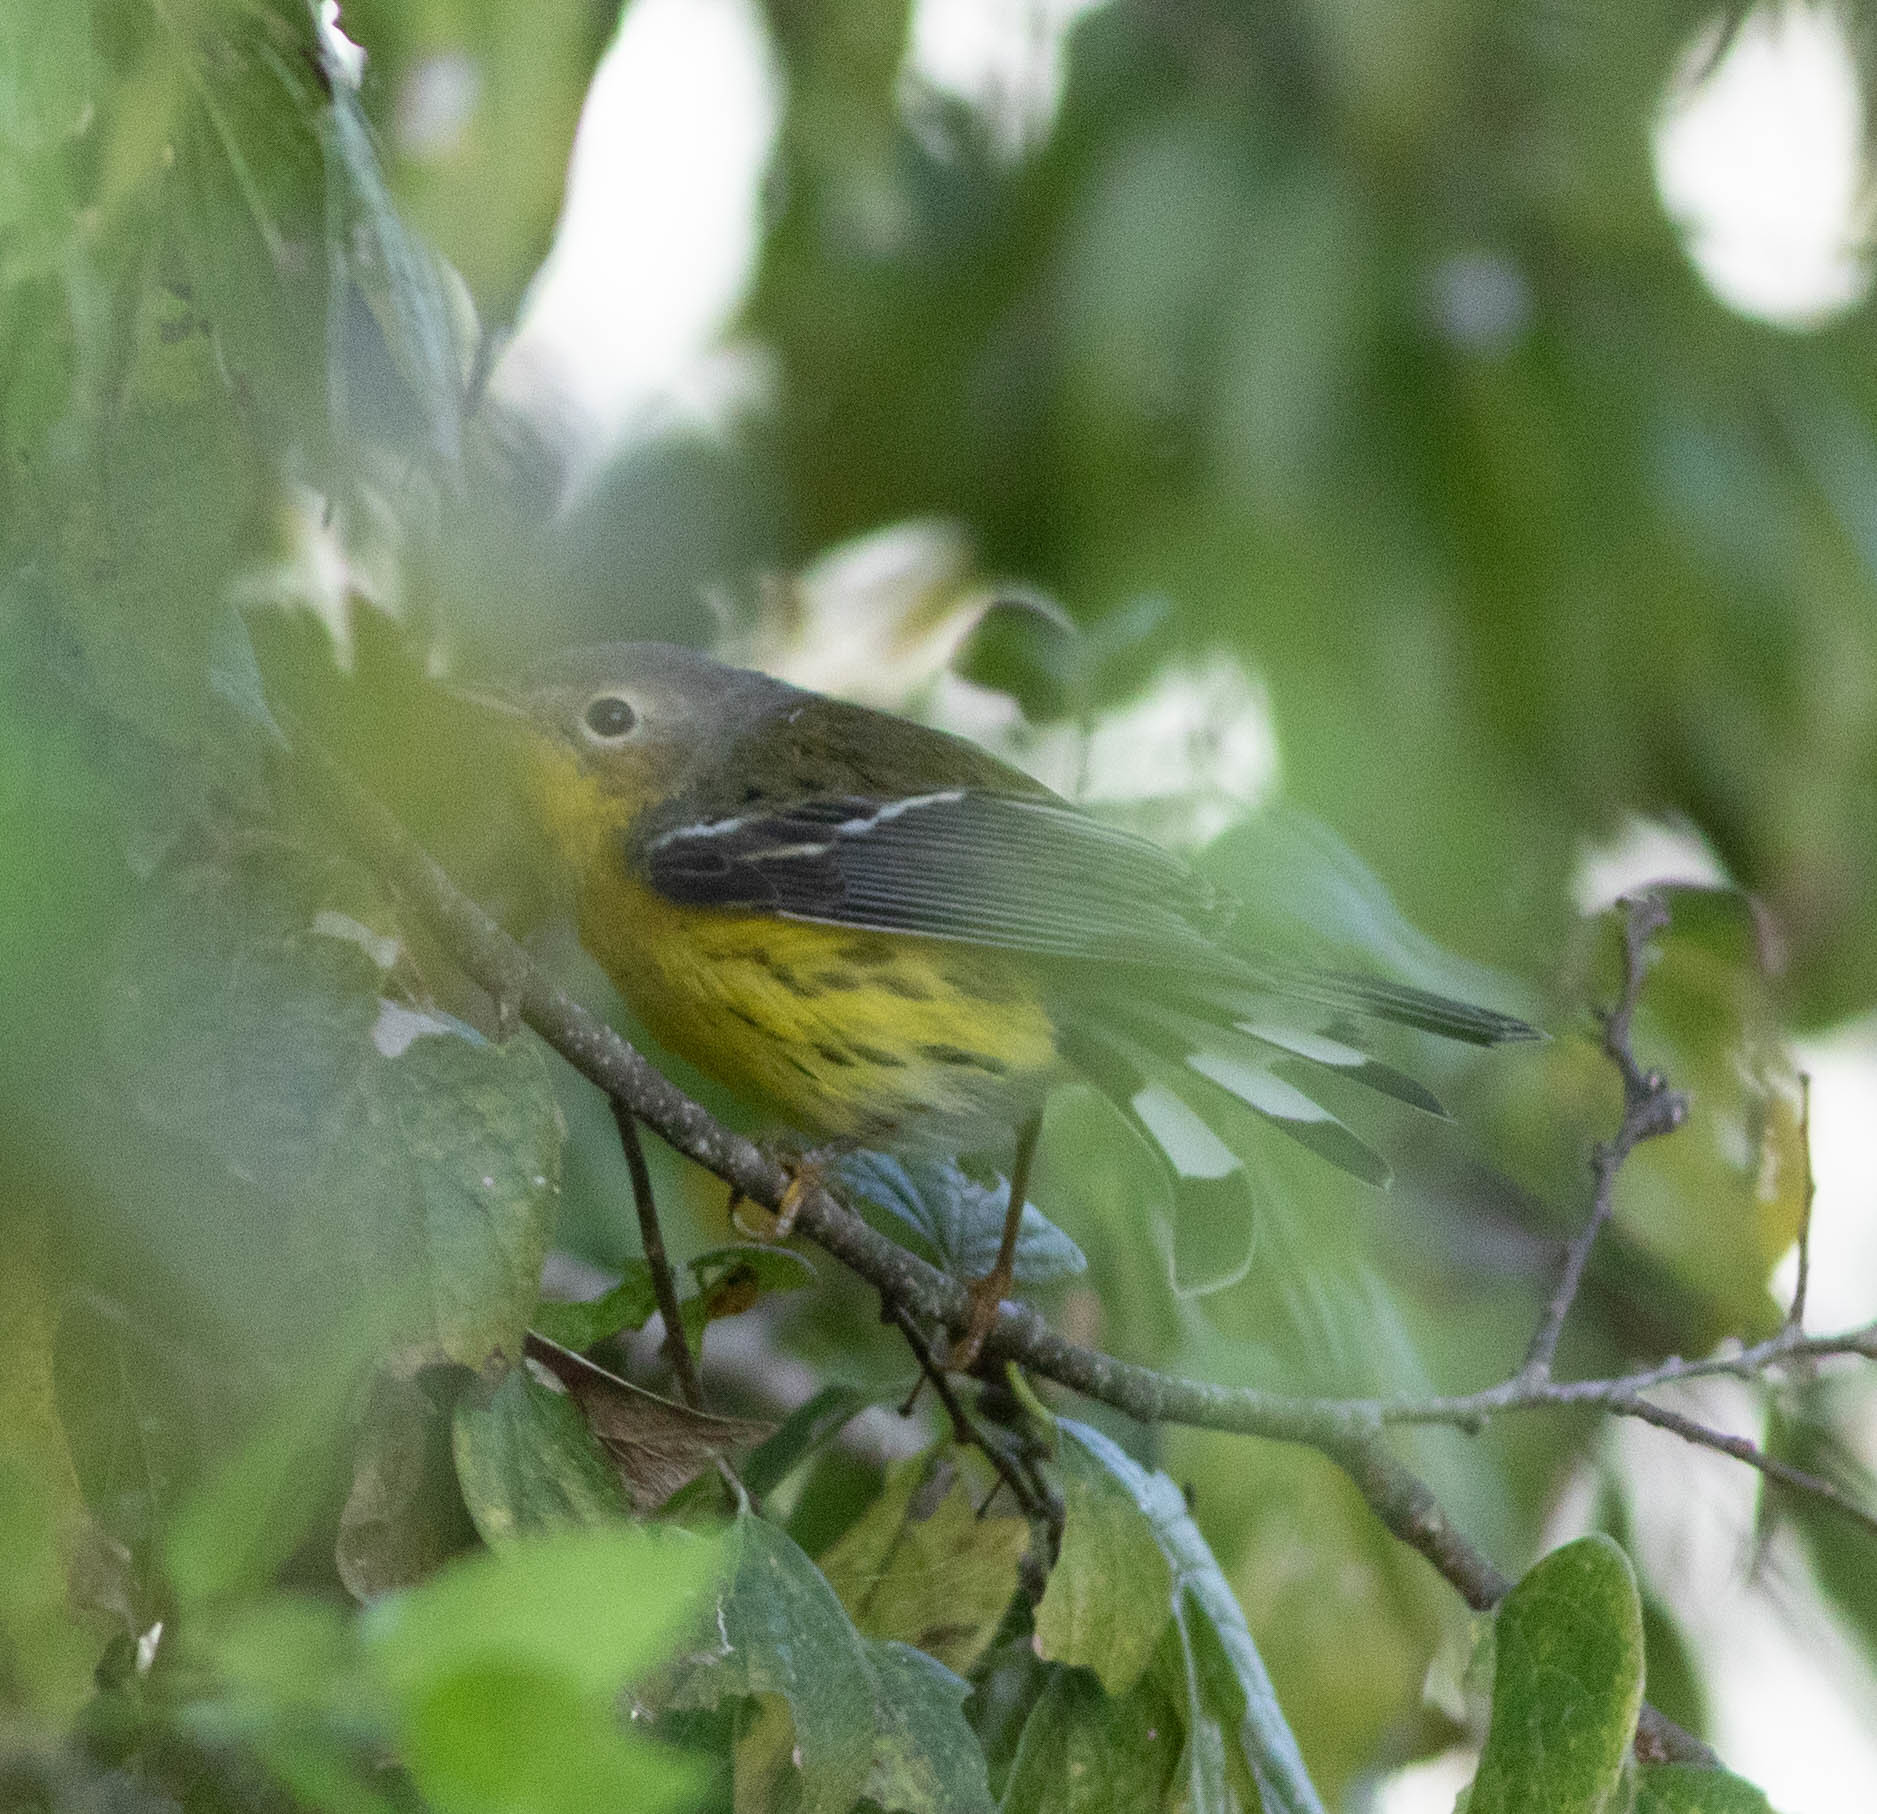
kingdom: Animalia
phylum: Chordata
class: Aves
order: Passeriformes
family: Parulidae
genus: Setophaga
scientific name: Setophaga magnolia
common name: Magnolia warbler
